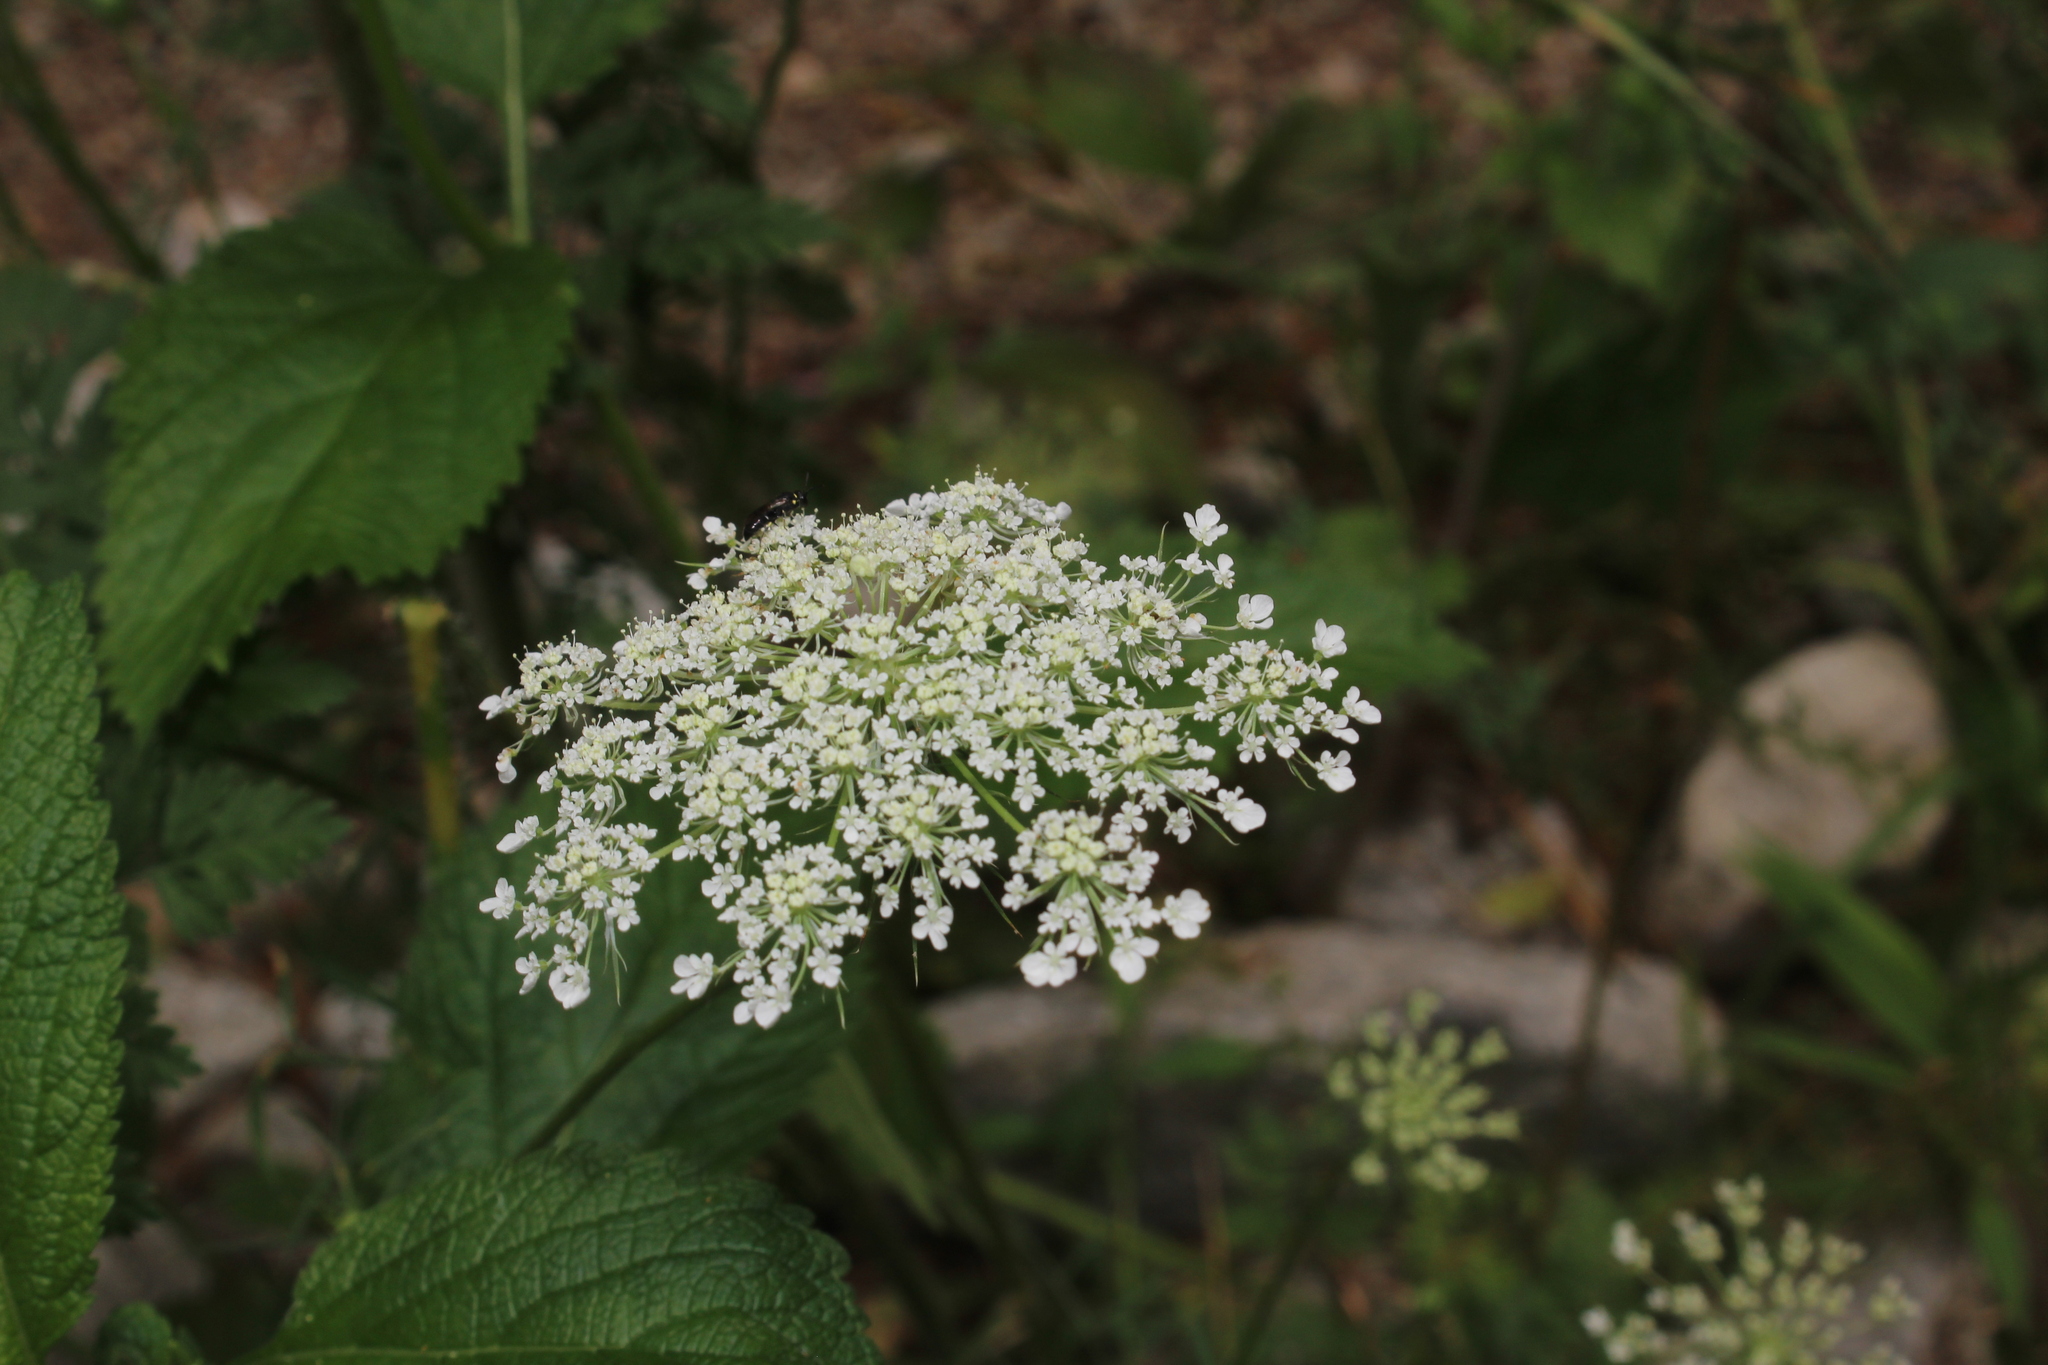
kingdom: Plantae
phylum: Tracheophyta
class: Magnoliopsida
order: Apiales
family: Apiaceae
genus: Daucus
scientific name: Daucus carota
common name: Wild carrot
